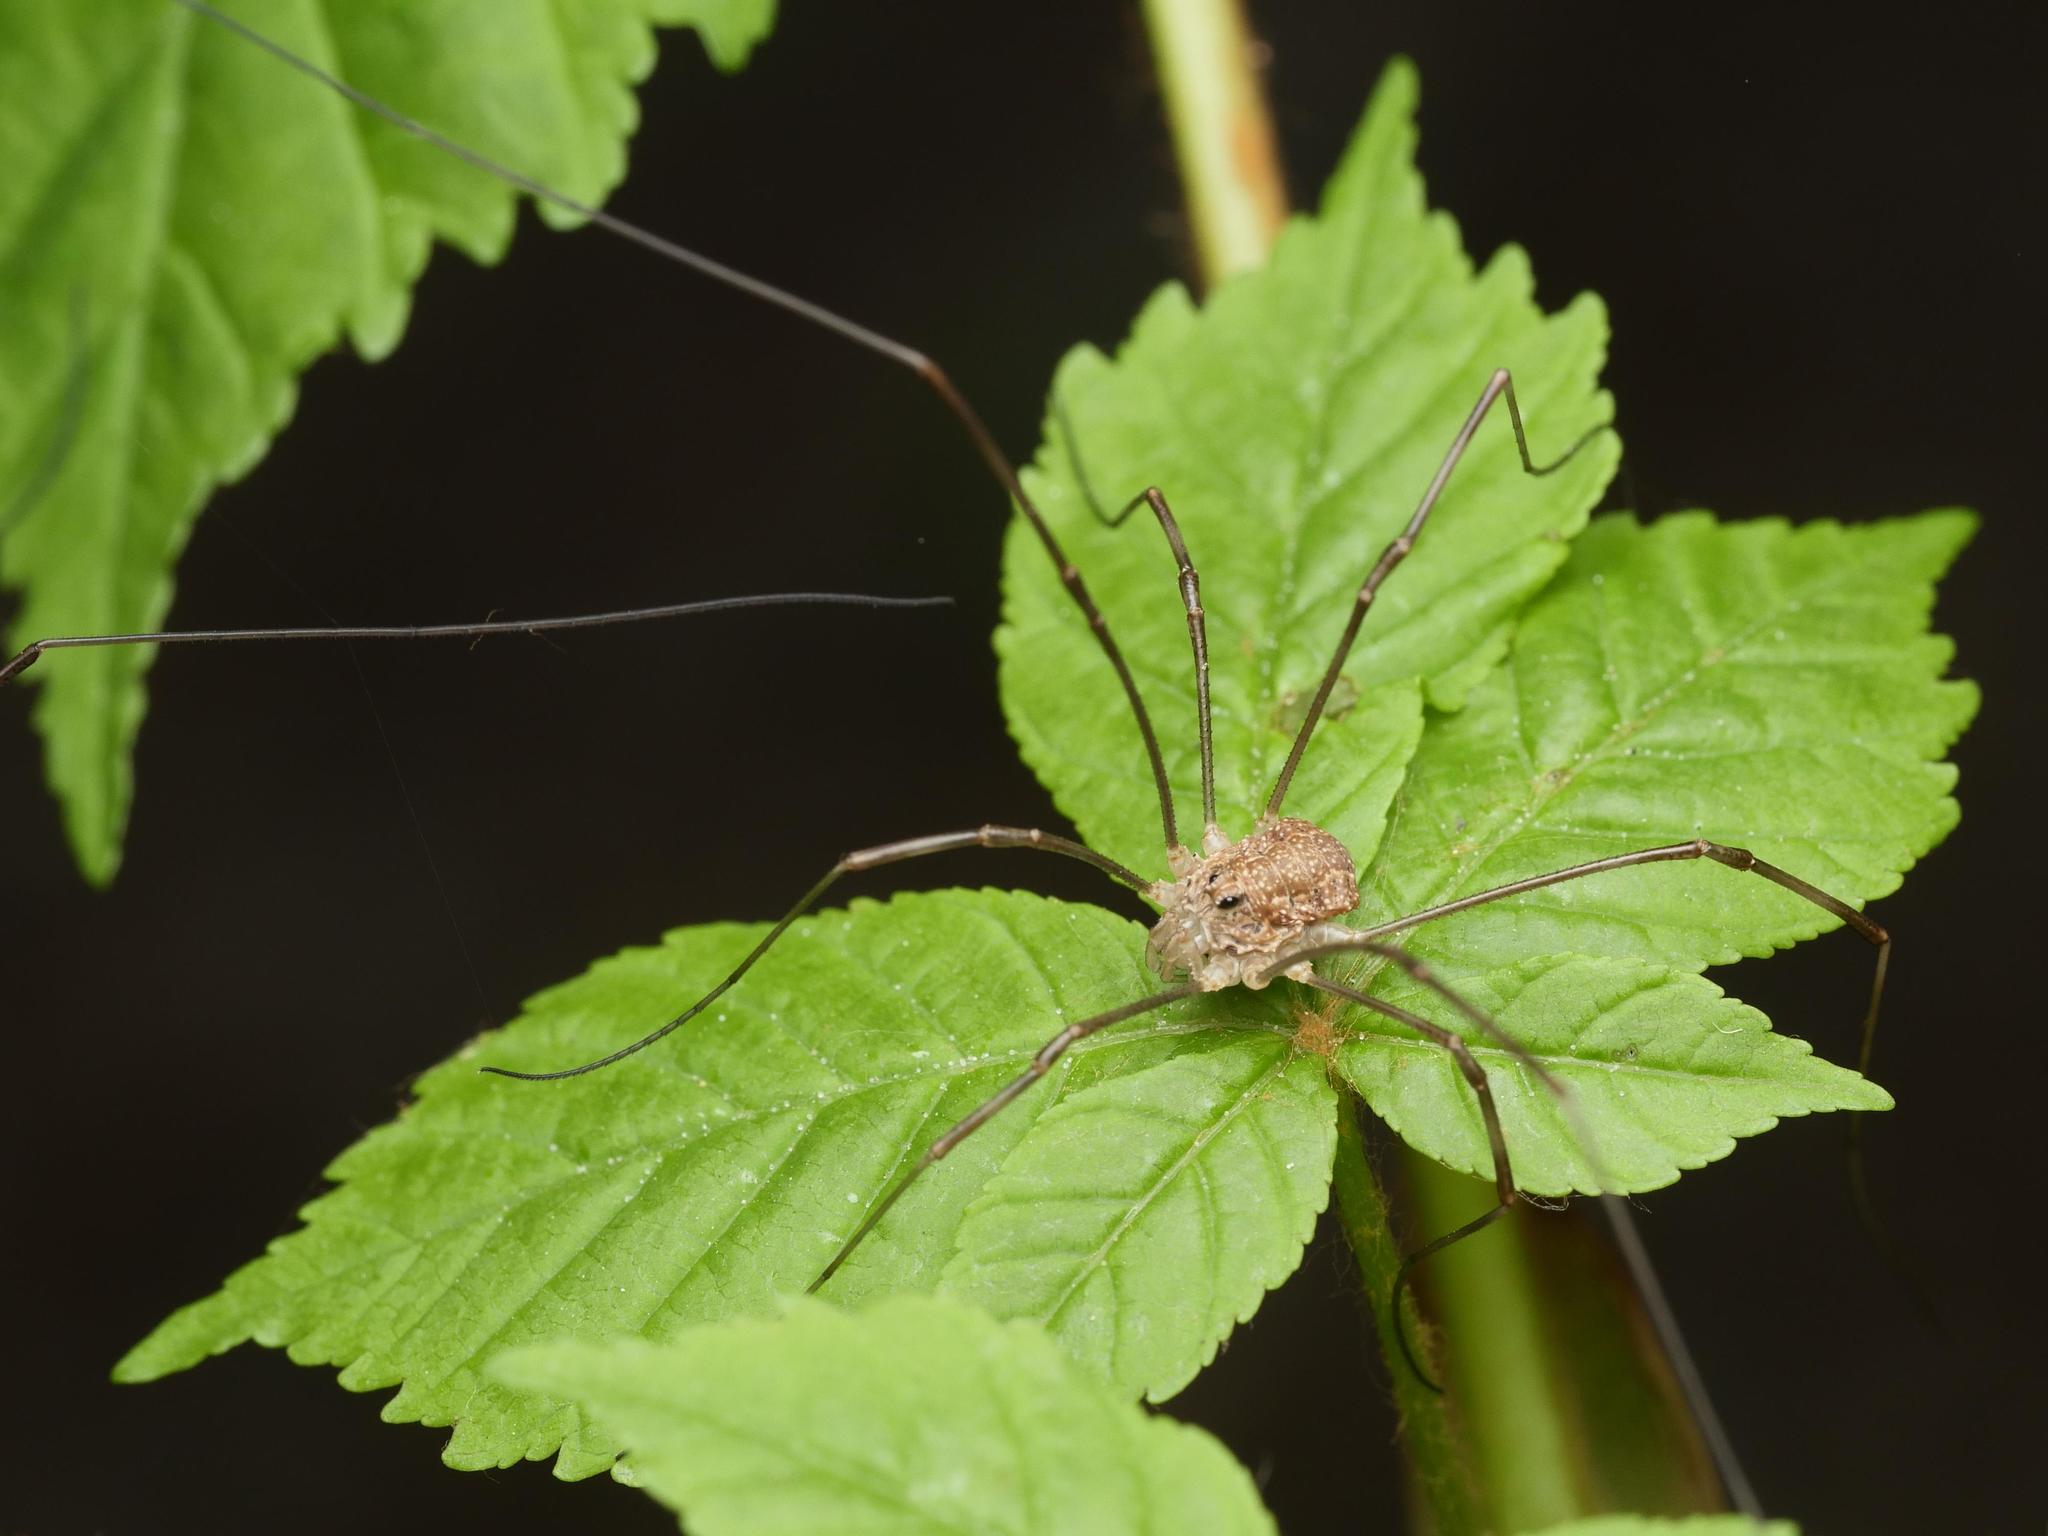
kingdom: Animalia
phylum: Arthropoda
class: Arachnida
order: Opiliones
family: Phalangiidae
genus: Rilaena
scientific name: Rilaena triangularis
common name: Spring harvestman
